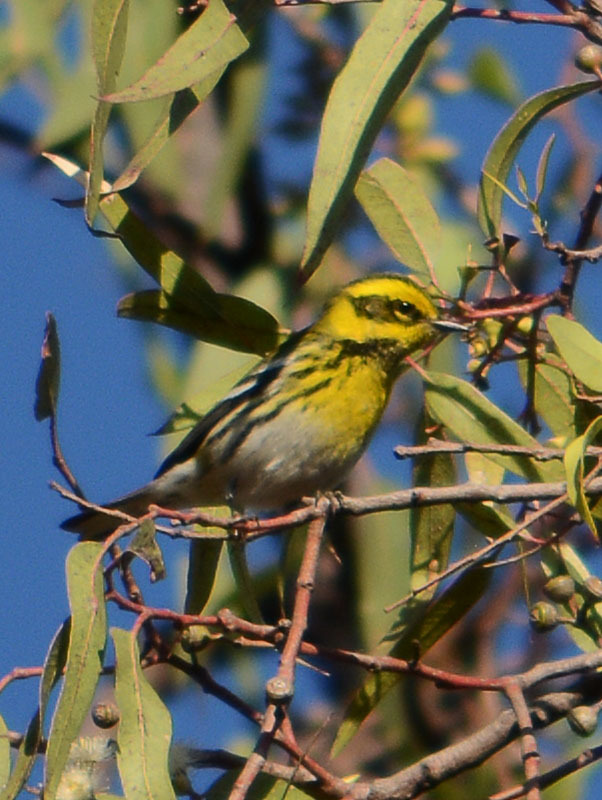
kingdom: Animalia
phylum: Chordata
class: Aves
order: Passeriformes
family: Parulidae
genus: Setophaga
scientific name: Setophaga townsendi
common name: Townsend's warbler
